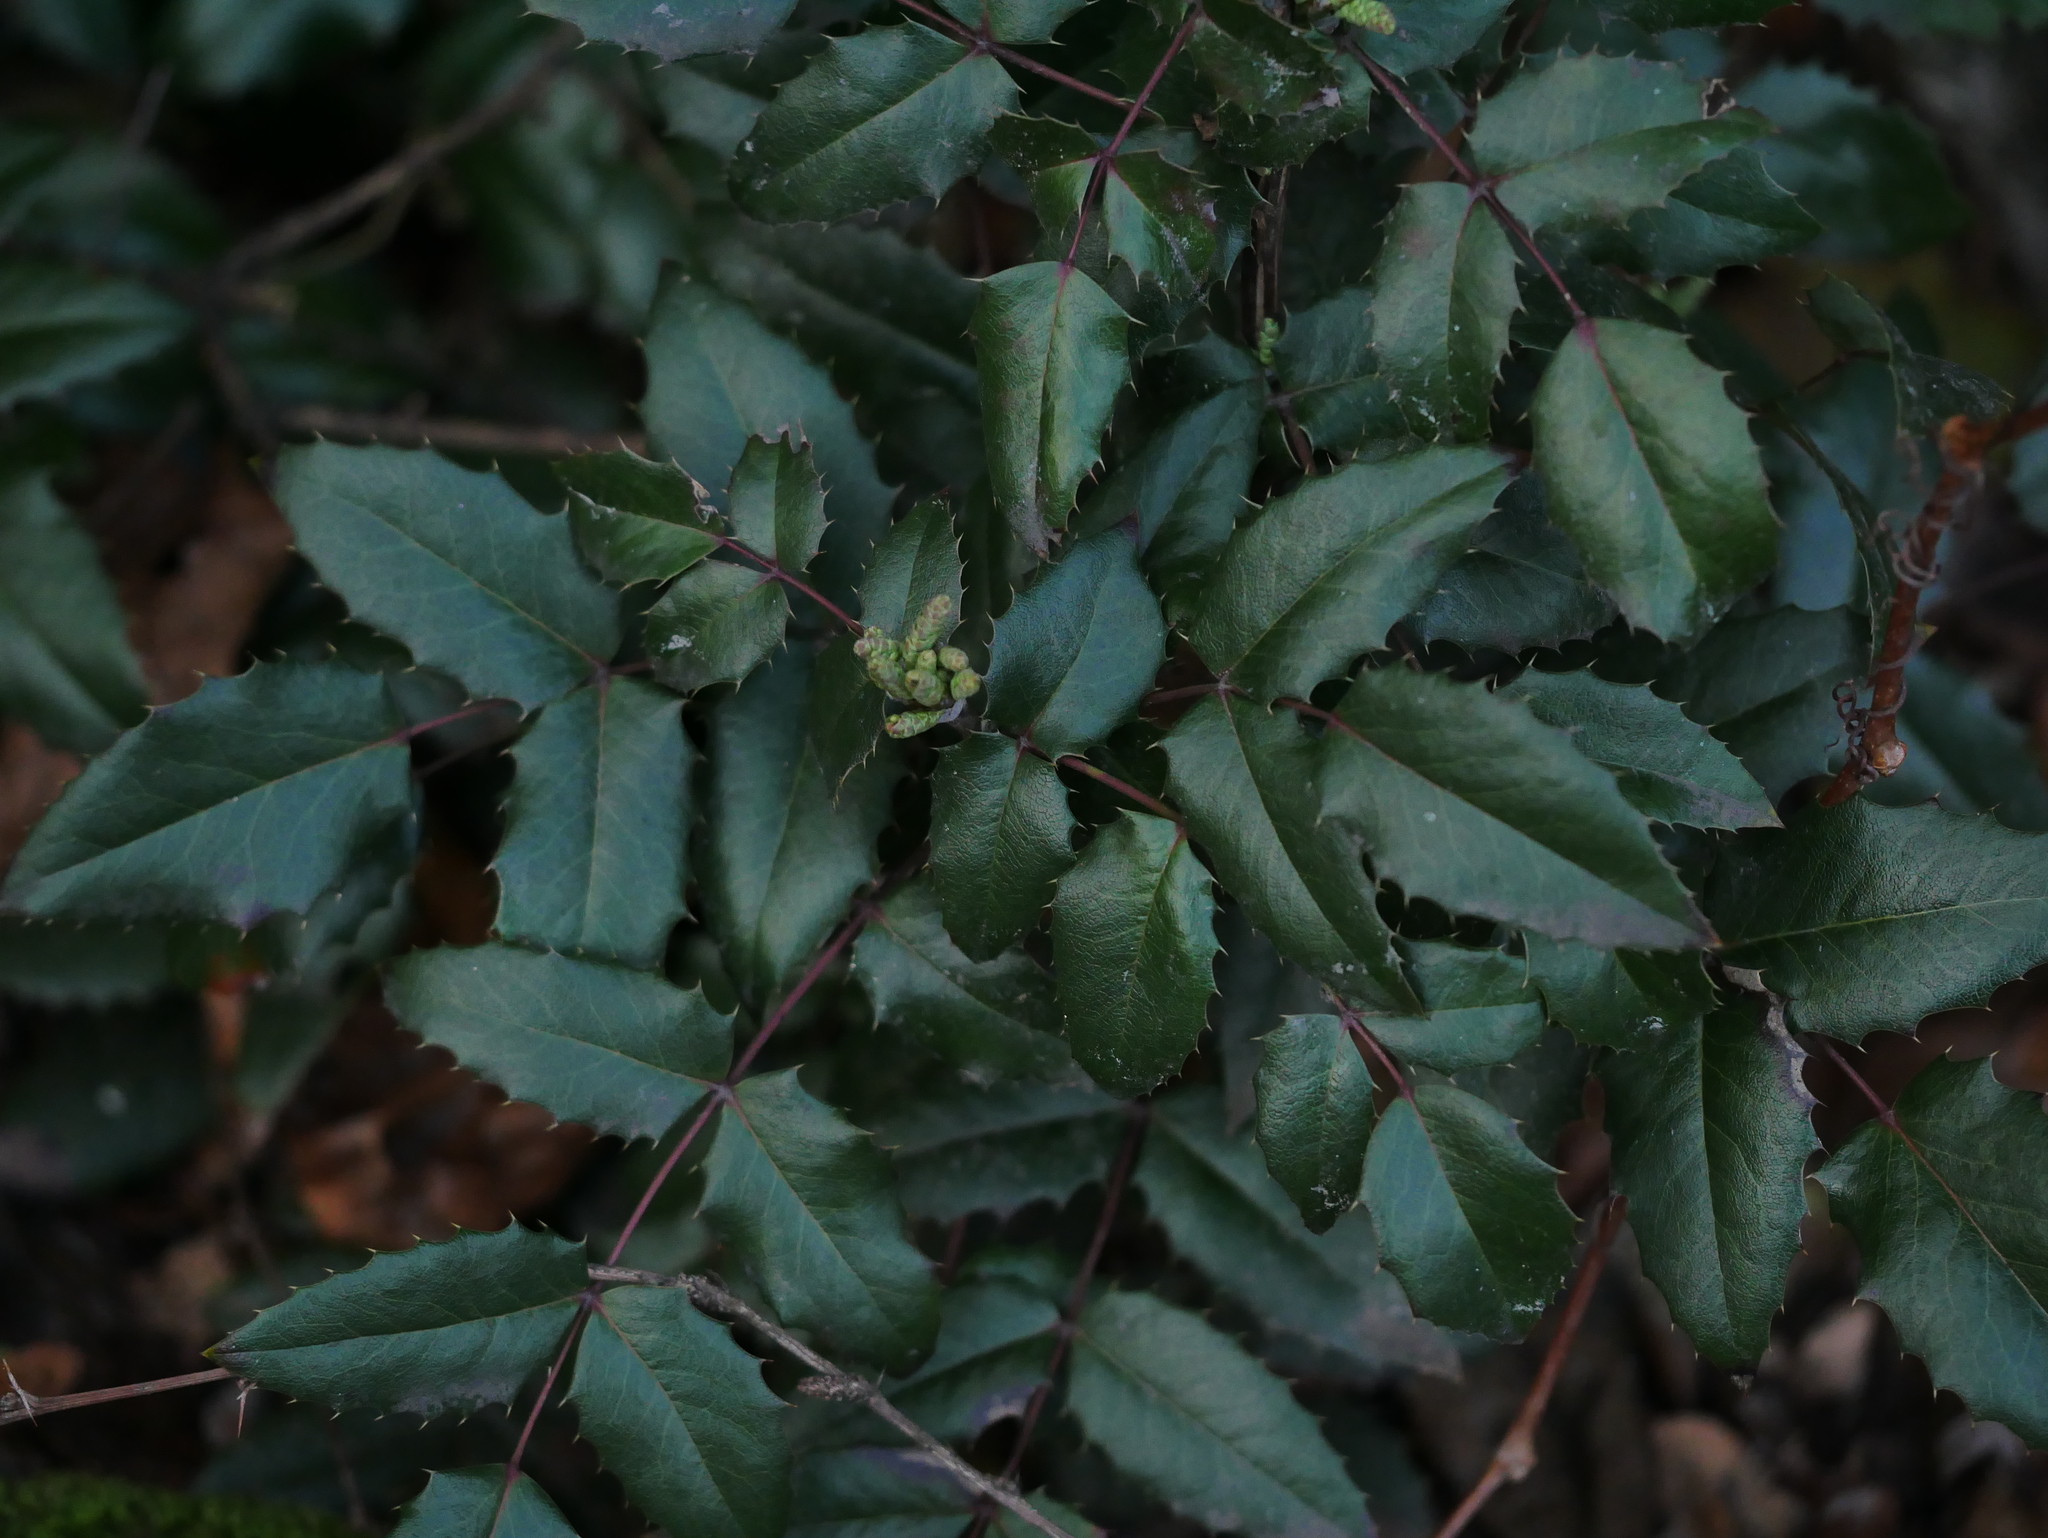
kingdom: Plantae
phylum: Tracheophyta
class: Magnoliopsida
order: Ranunculales
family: Berberidaceae
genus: Mahonia
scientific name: Mahonia aquifolium
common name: Oregon-grape
